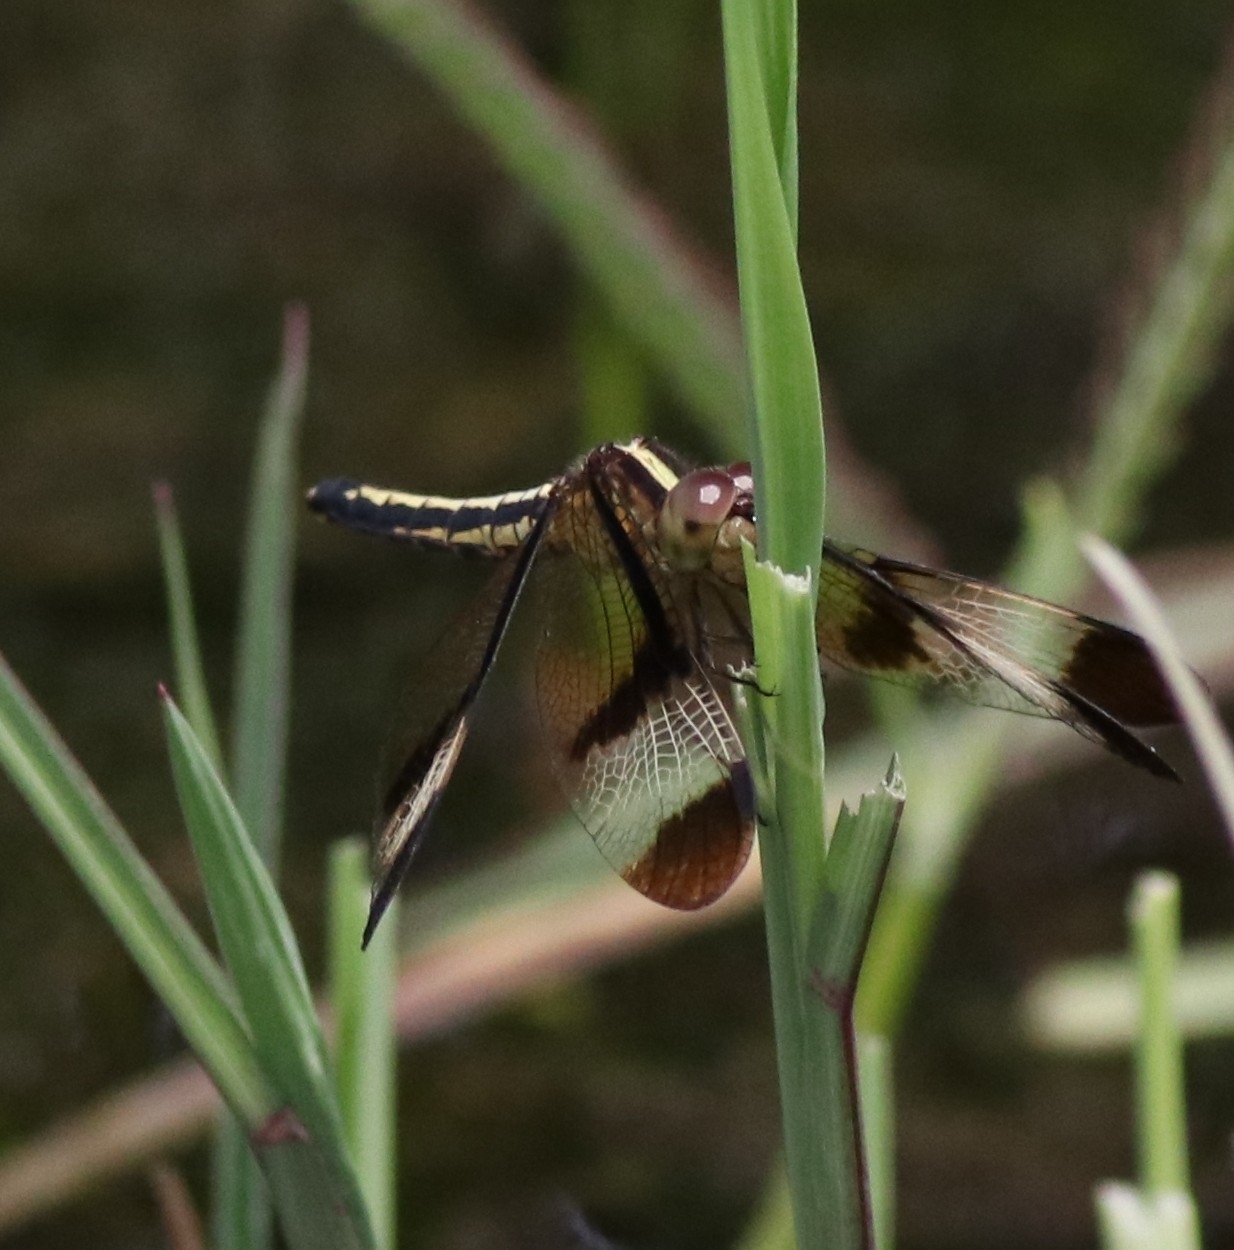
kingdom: Animalia
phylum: Arthropoda
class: Insecta
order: Odonata
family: Libellulidae
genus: Neurothemis
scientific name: Neurothemis tullia
